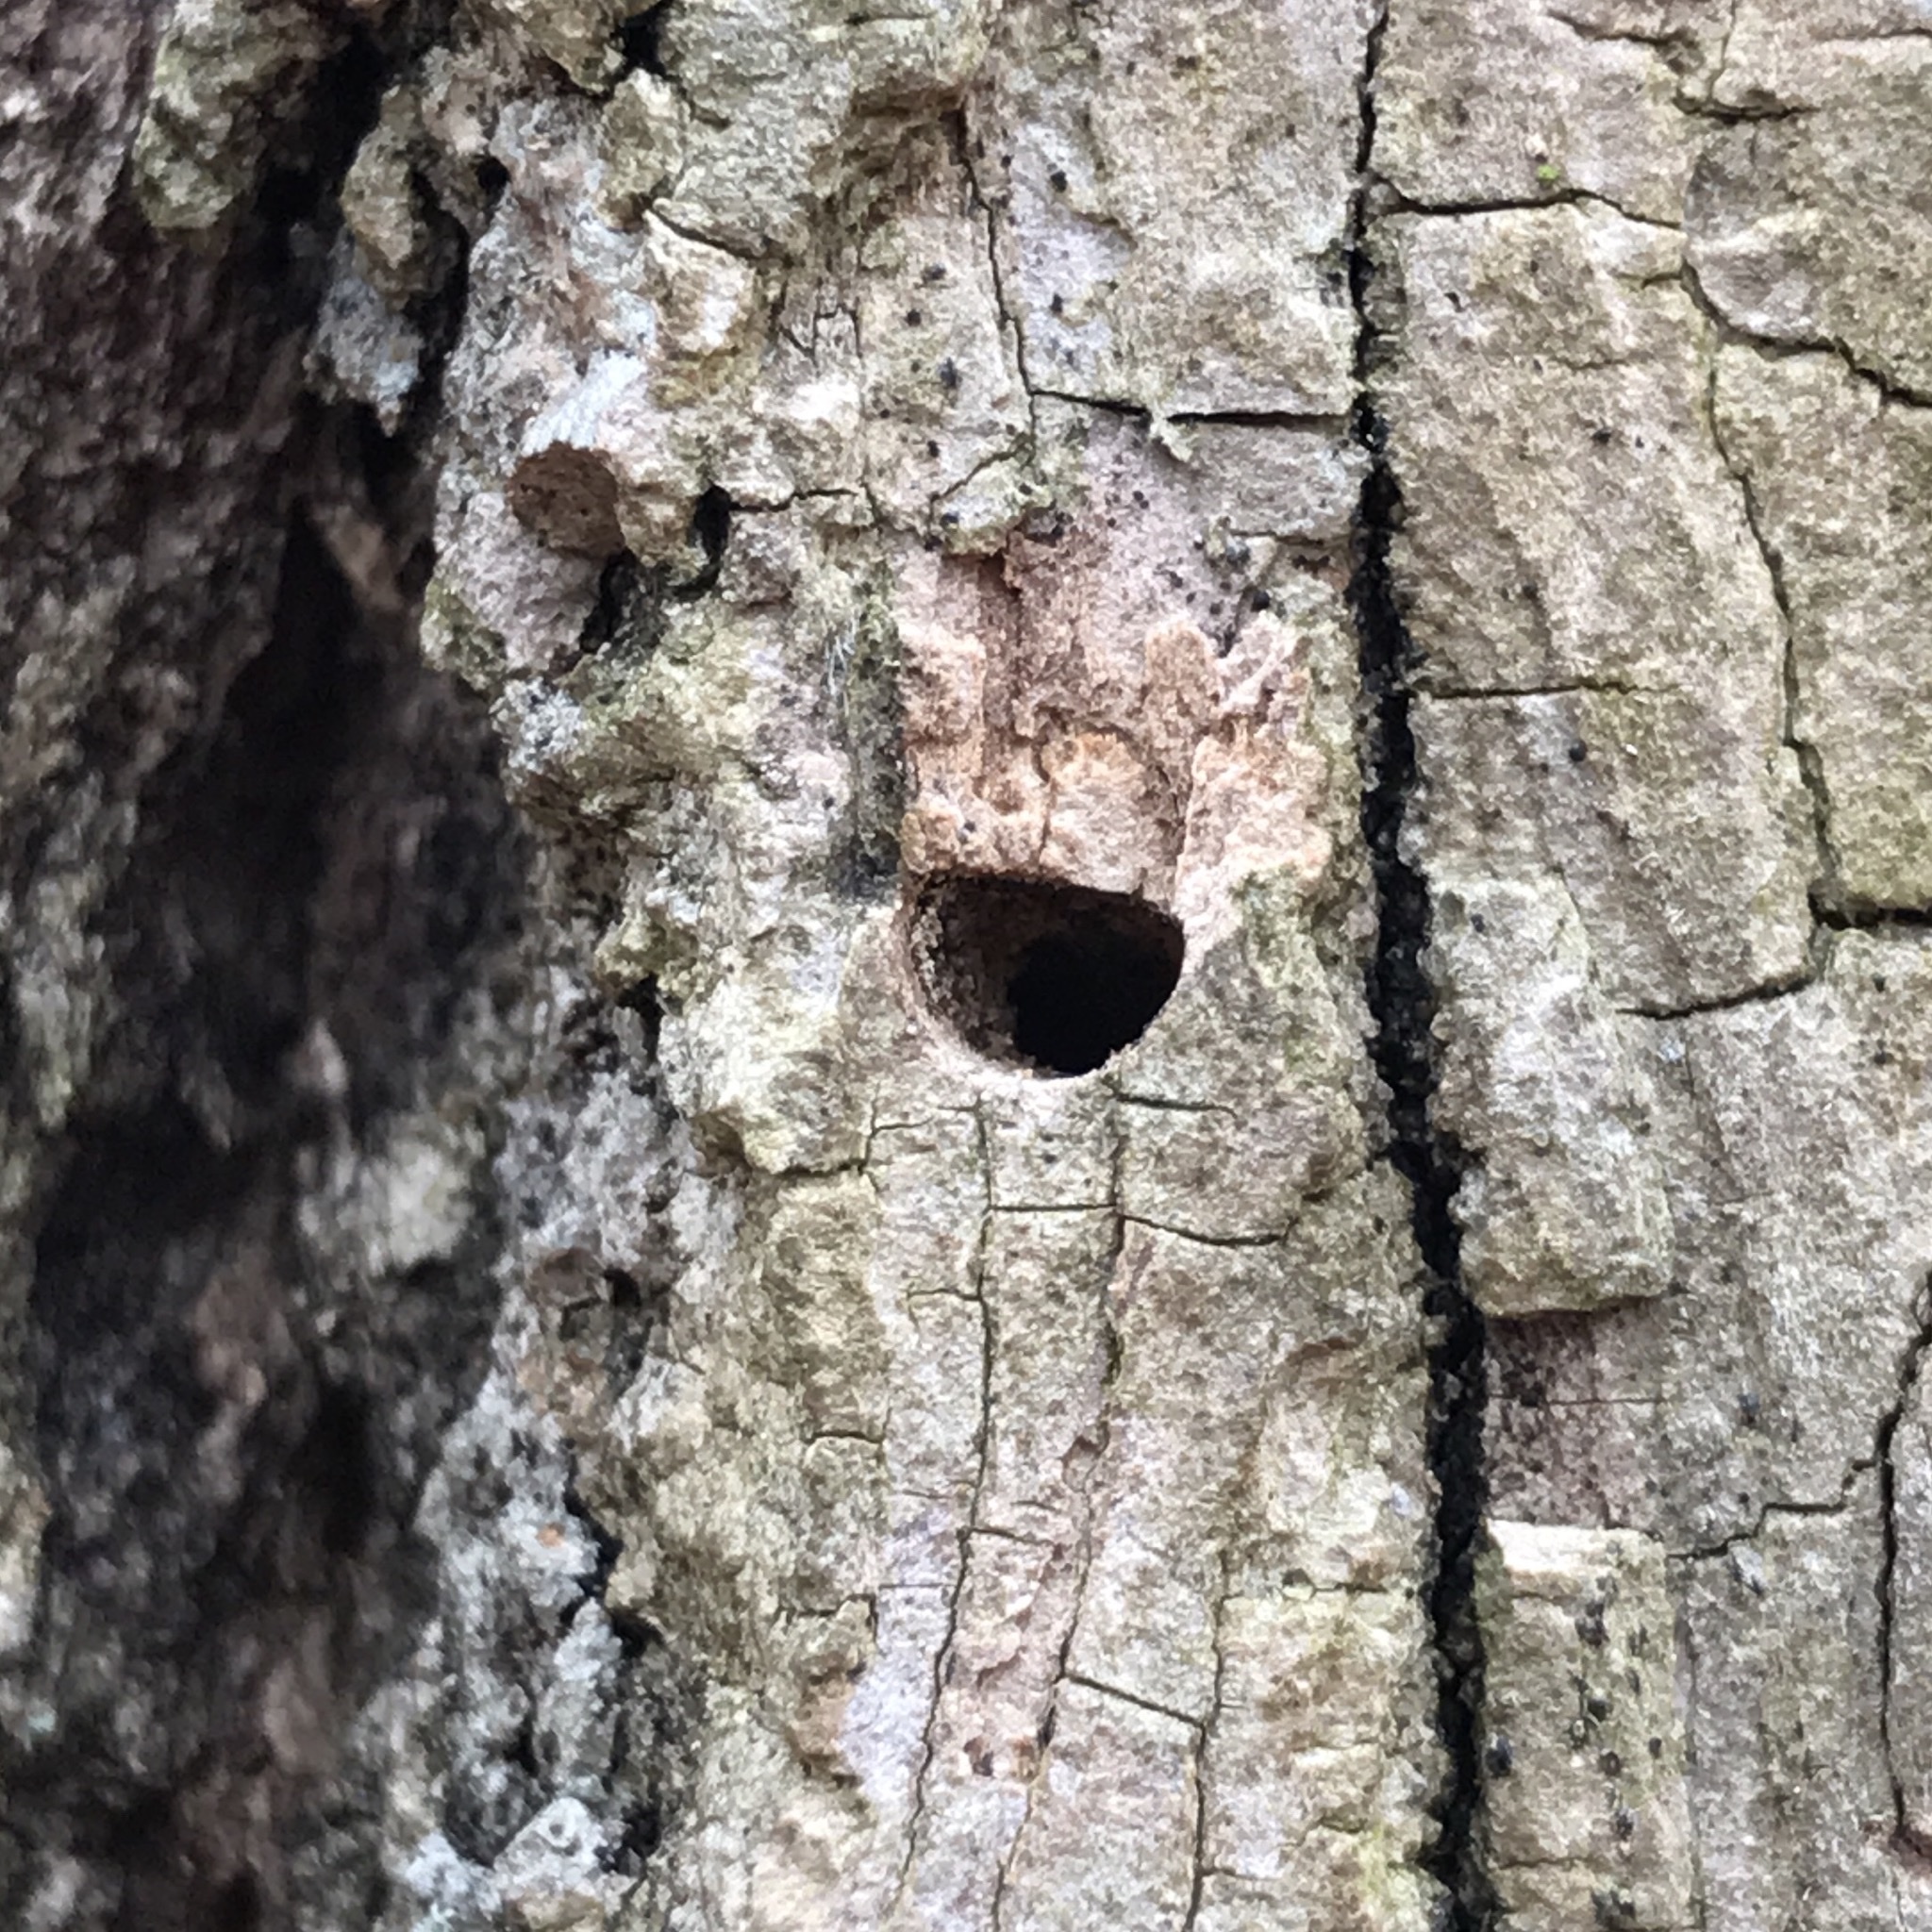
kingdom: Animalia
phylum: Arthropoda
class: Insecta
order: Coleoptera
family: Buprestidae
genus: Agrilus
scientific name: Agrilus planipennis
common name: Emerald ash borer
